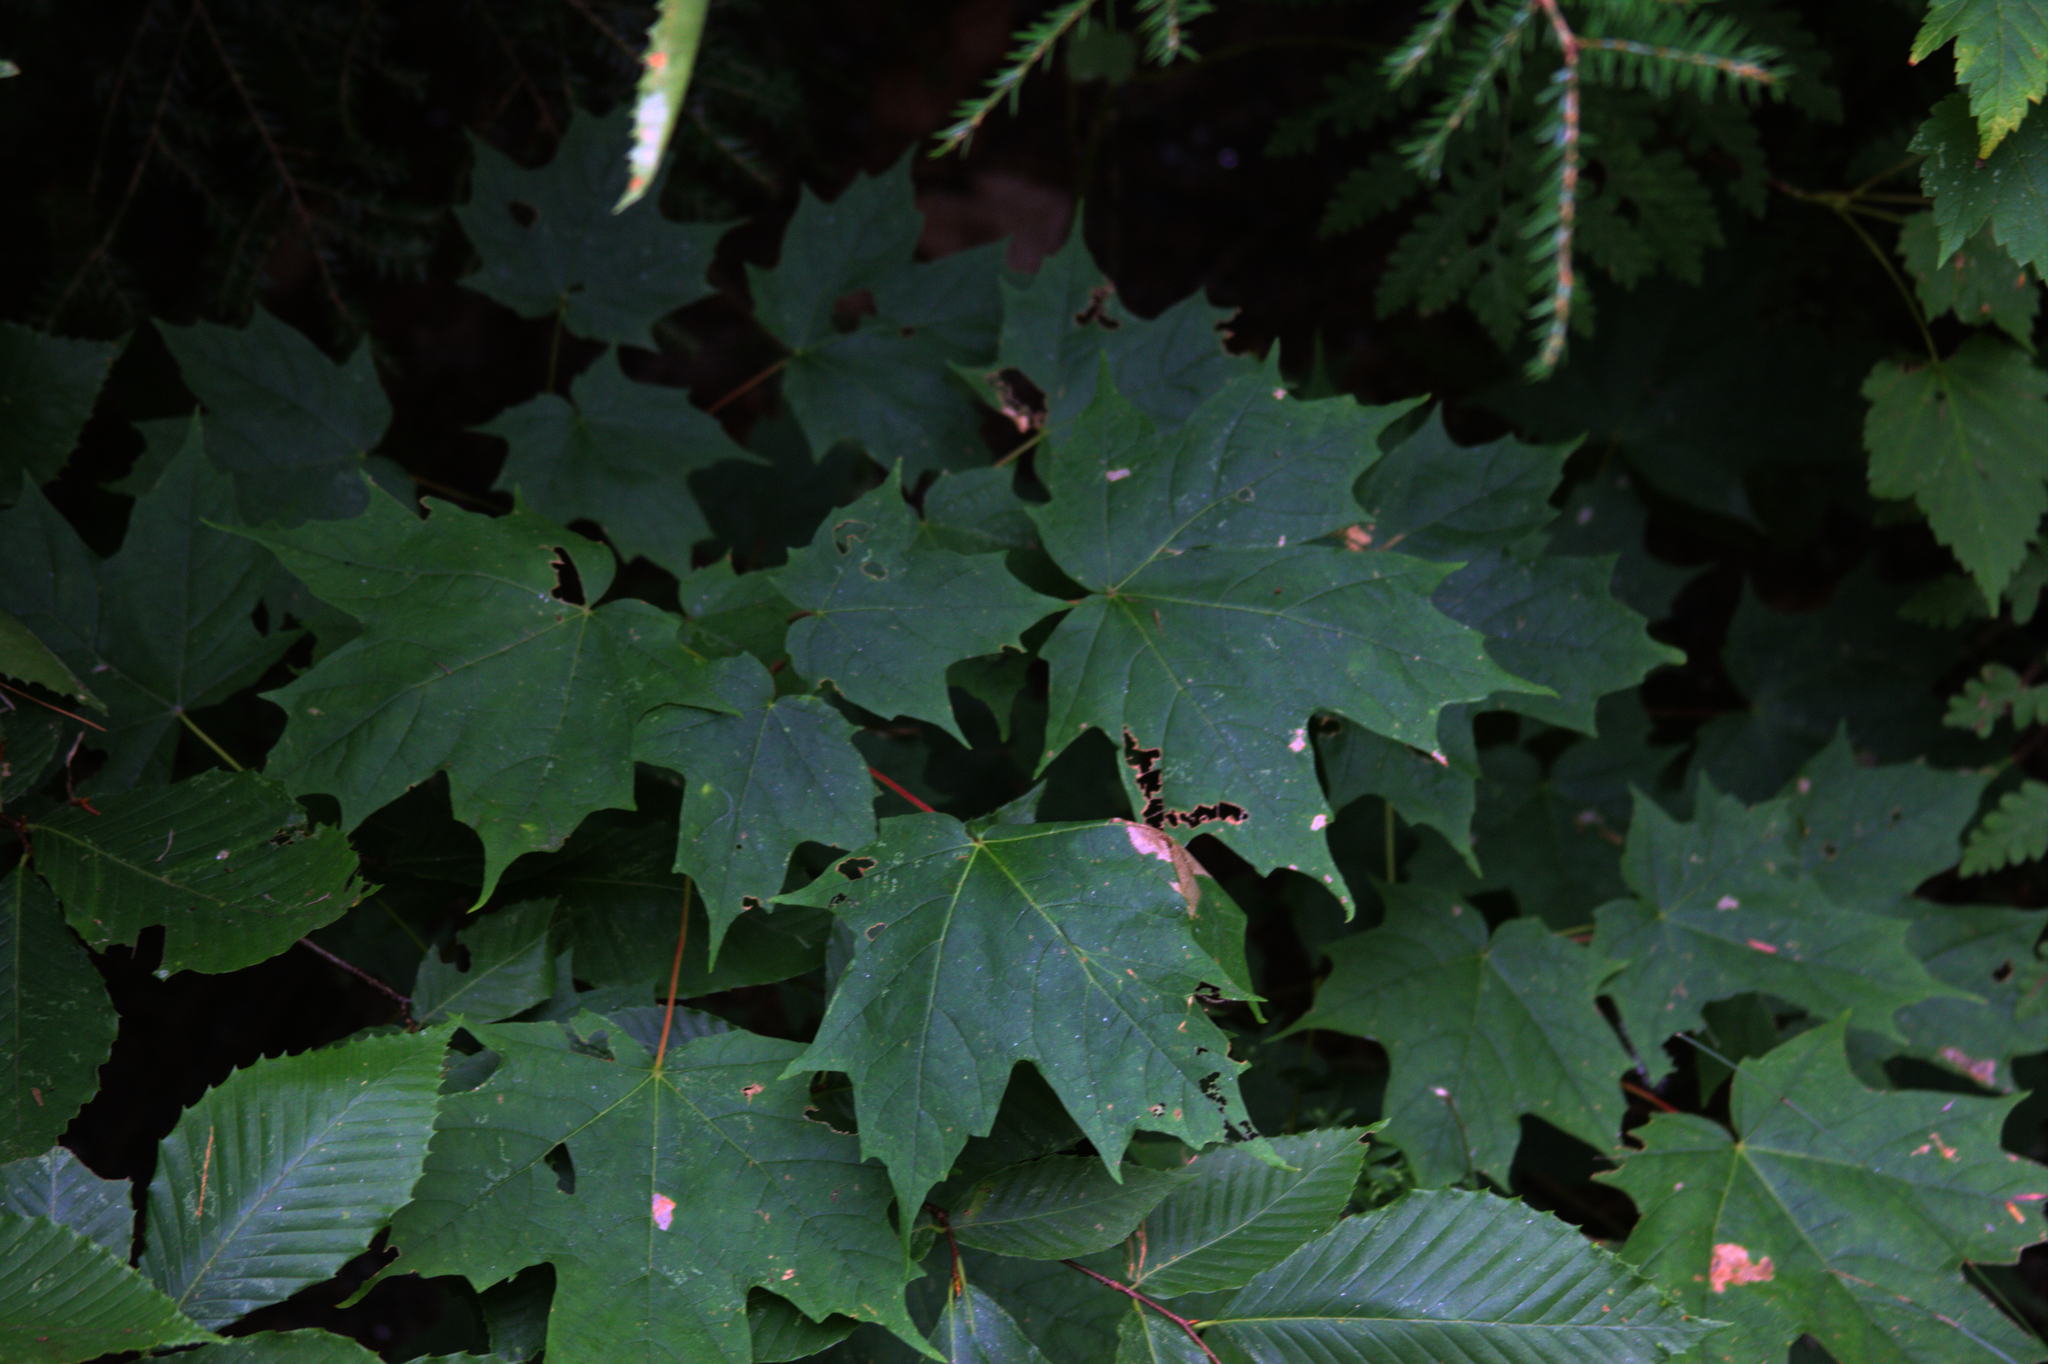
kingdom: Plantae
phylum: Tracheophyta
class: Magnoliopsida
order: Sapindales
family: Sapindaceae
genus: Acer
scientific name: Acer saccharum
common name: Sugar maple
